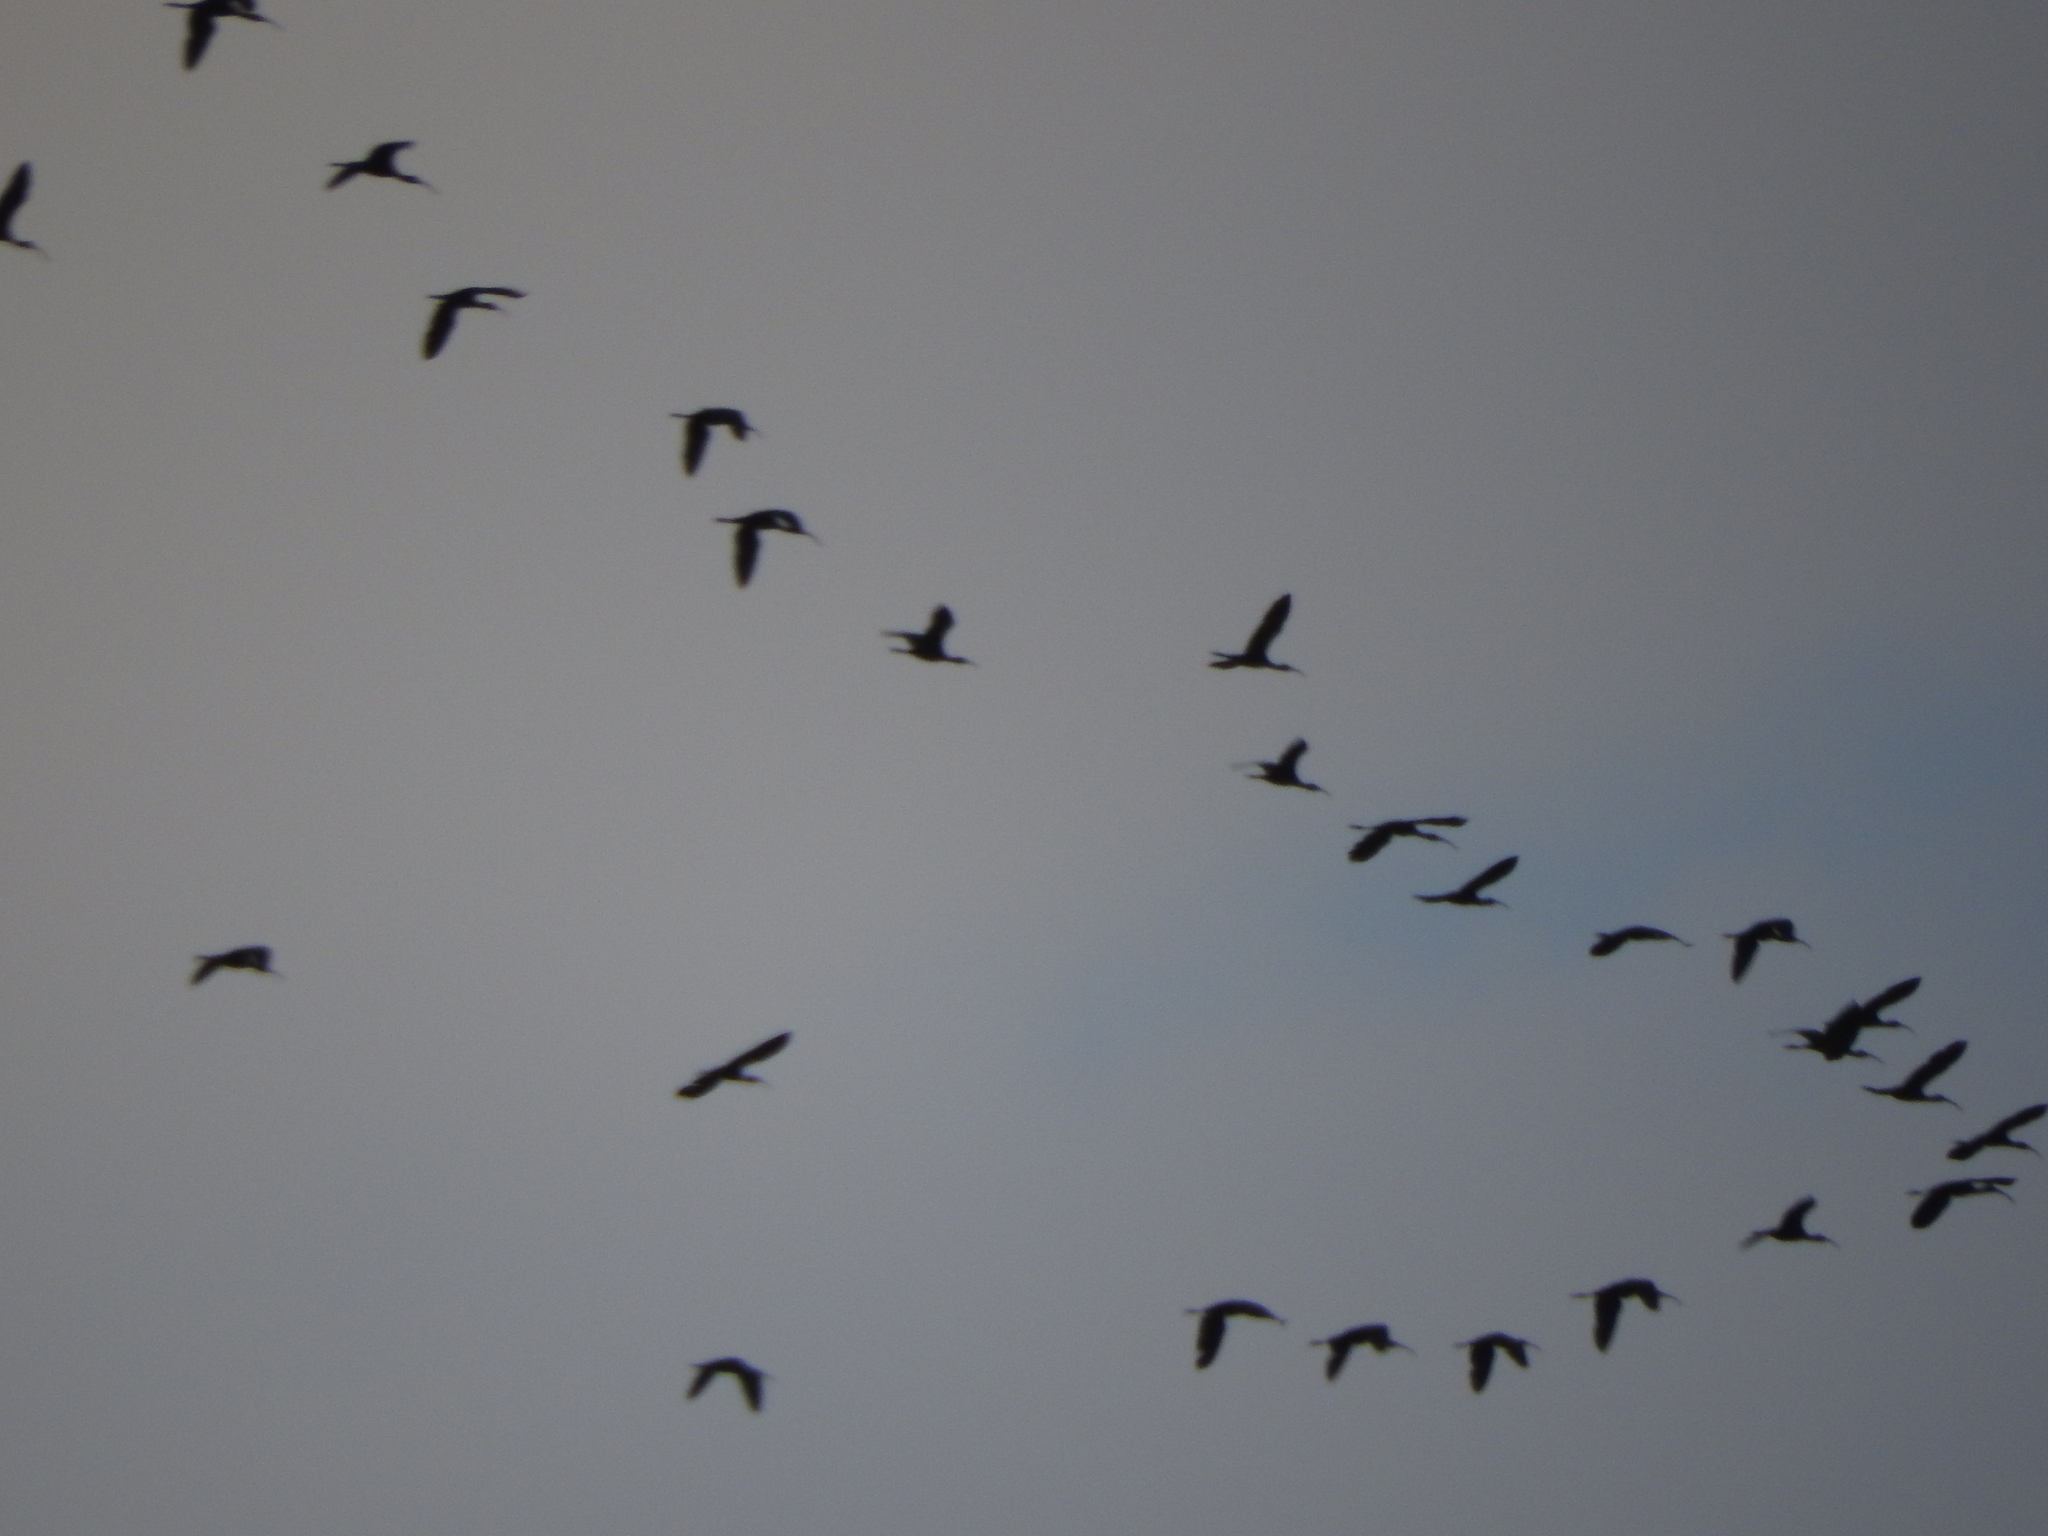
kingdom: Animalia
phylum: Chordata
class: Aves
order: Pelecaniformes
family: Threskiornithidae
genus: Plegadis
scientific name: Plegadis chihi
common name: White-faced ibis
